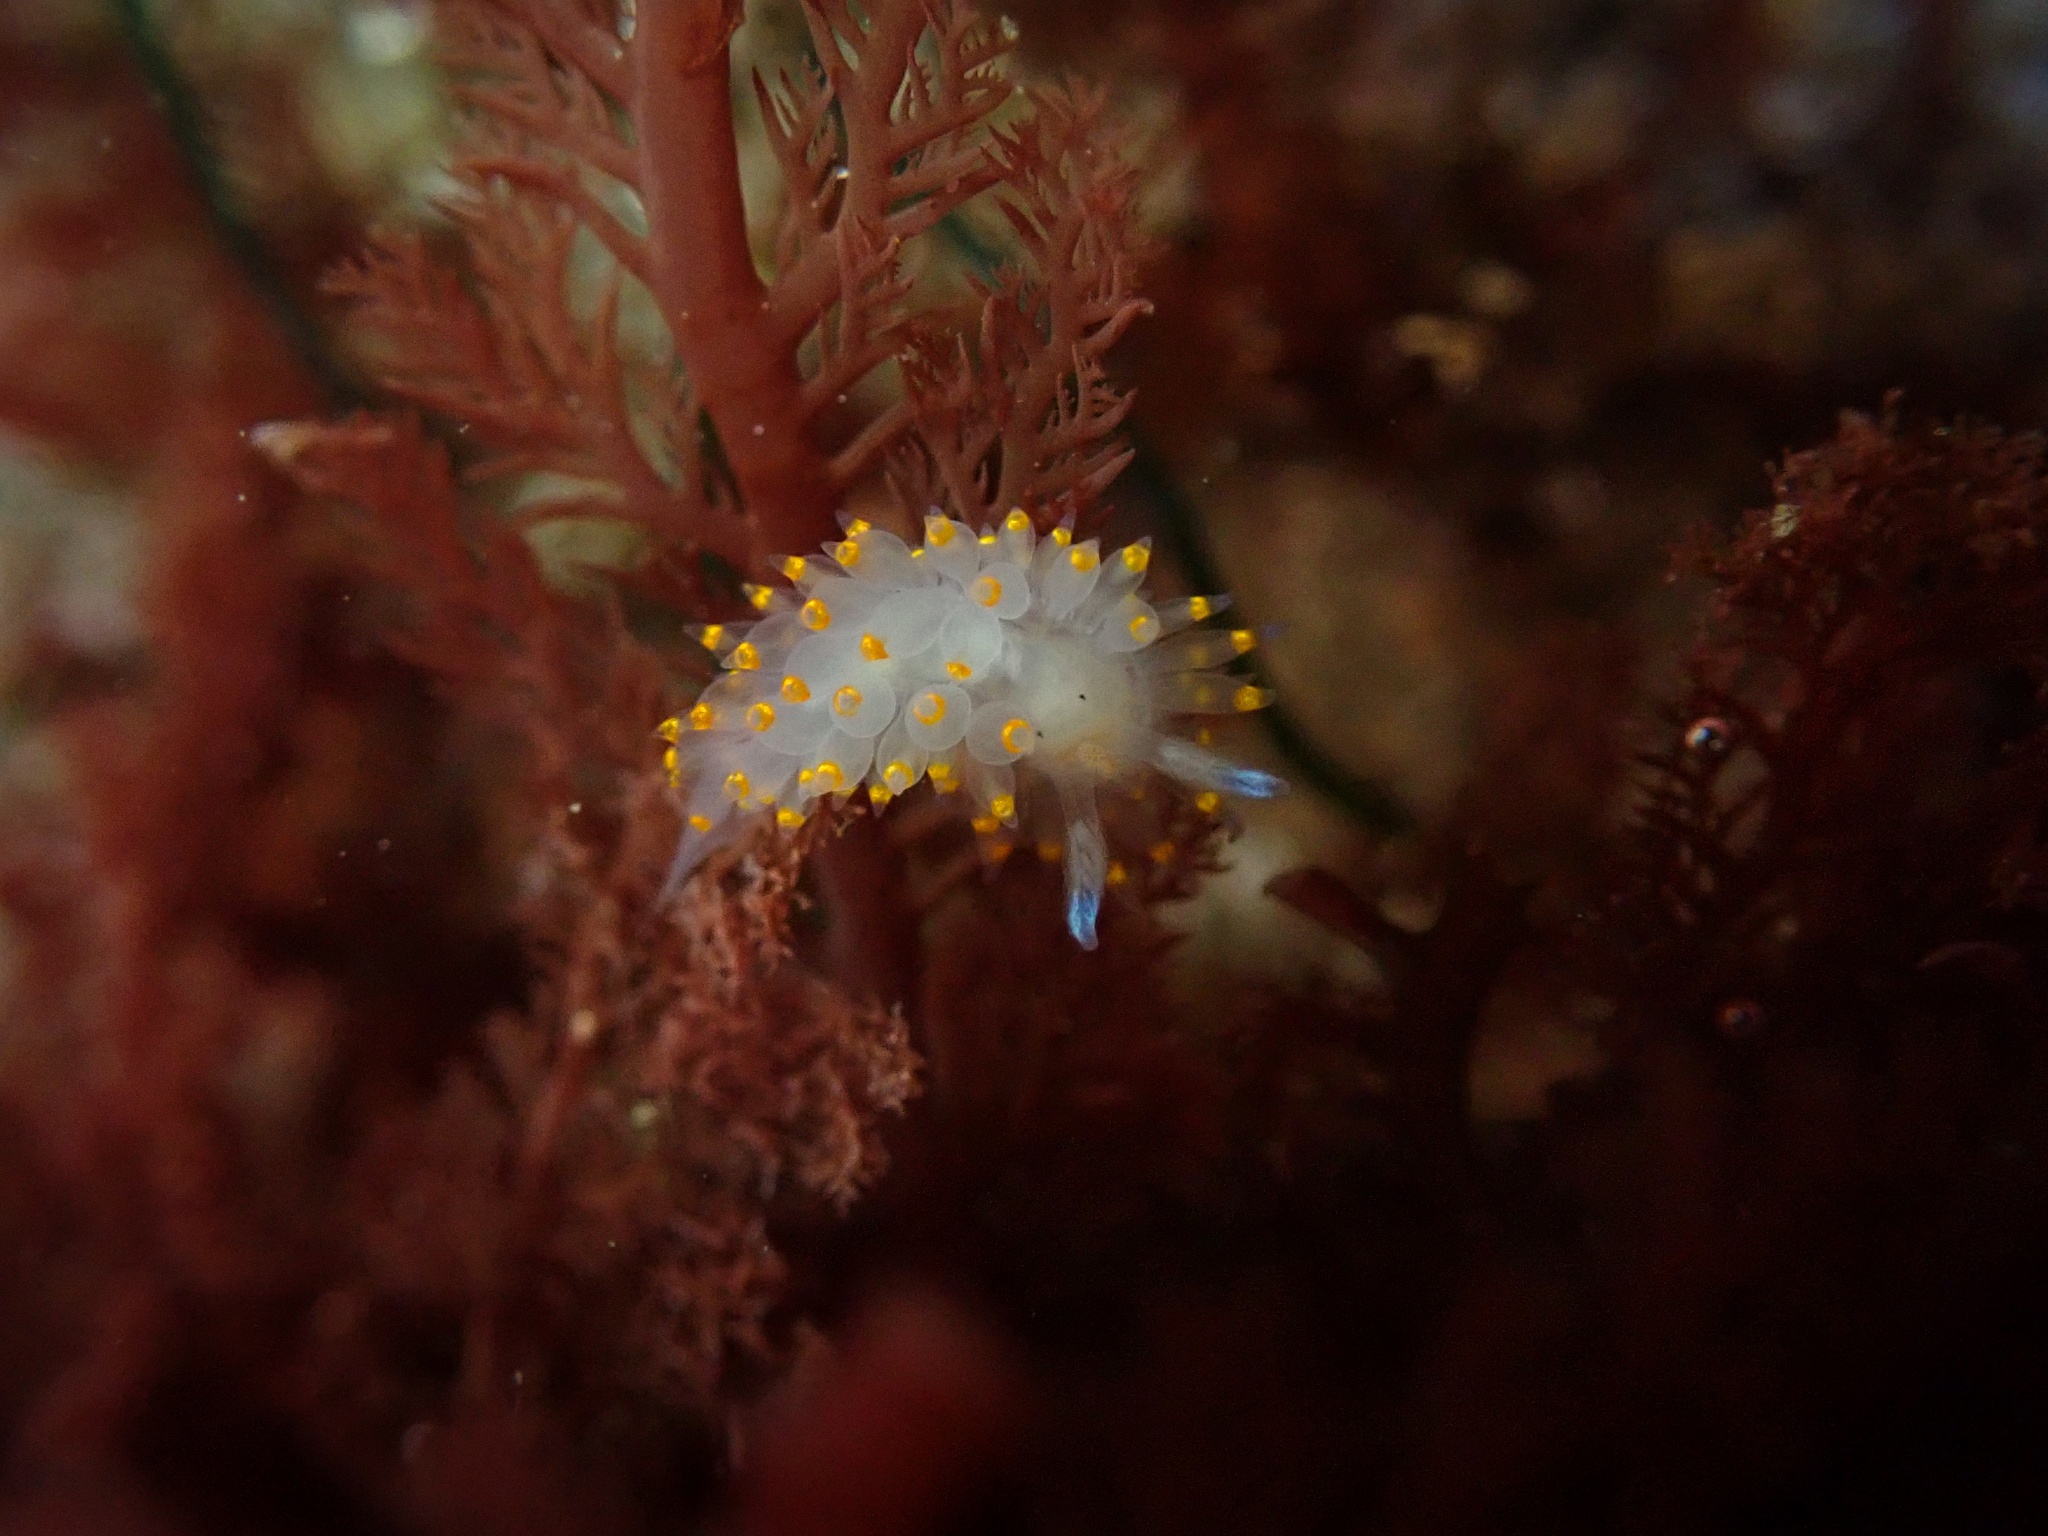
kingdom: Animalia
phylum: Mollusca
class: Gastropoda
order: Nudibranchia
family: Janolidae
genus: Antiopella
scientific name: Antiopella barbarensis
